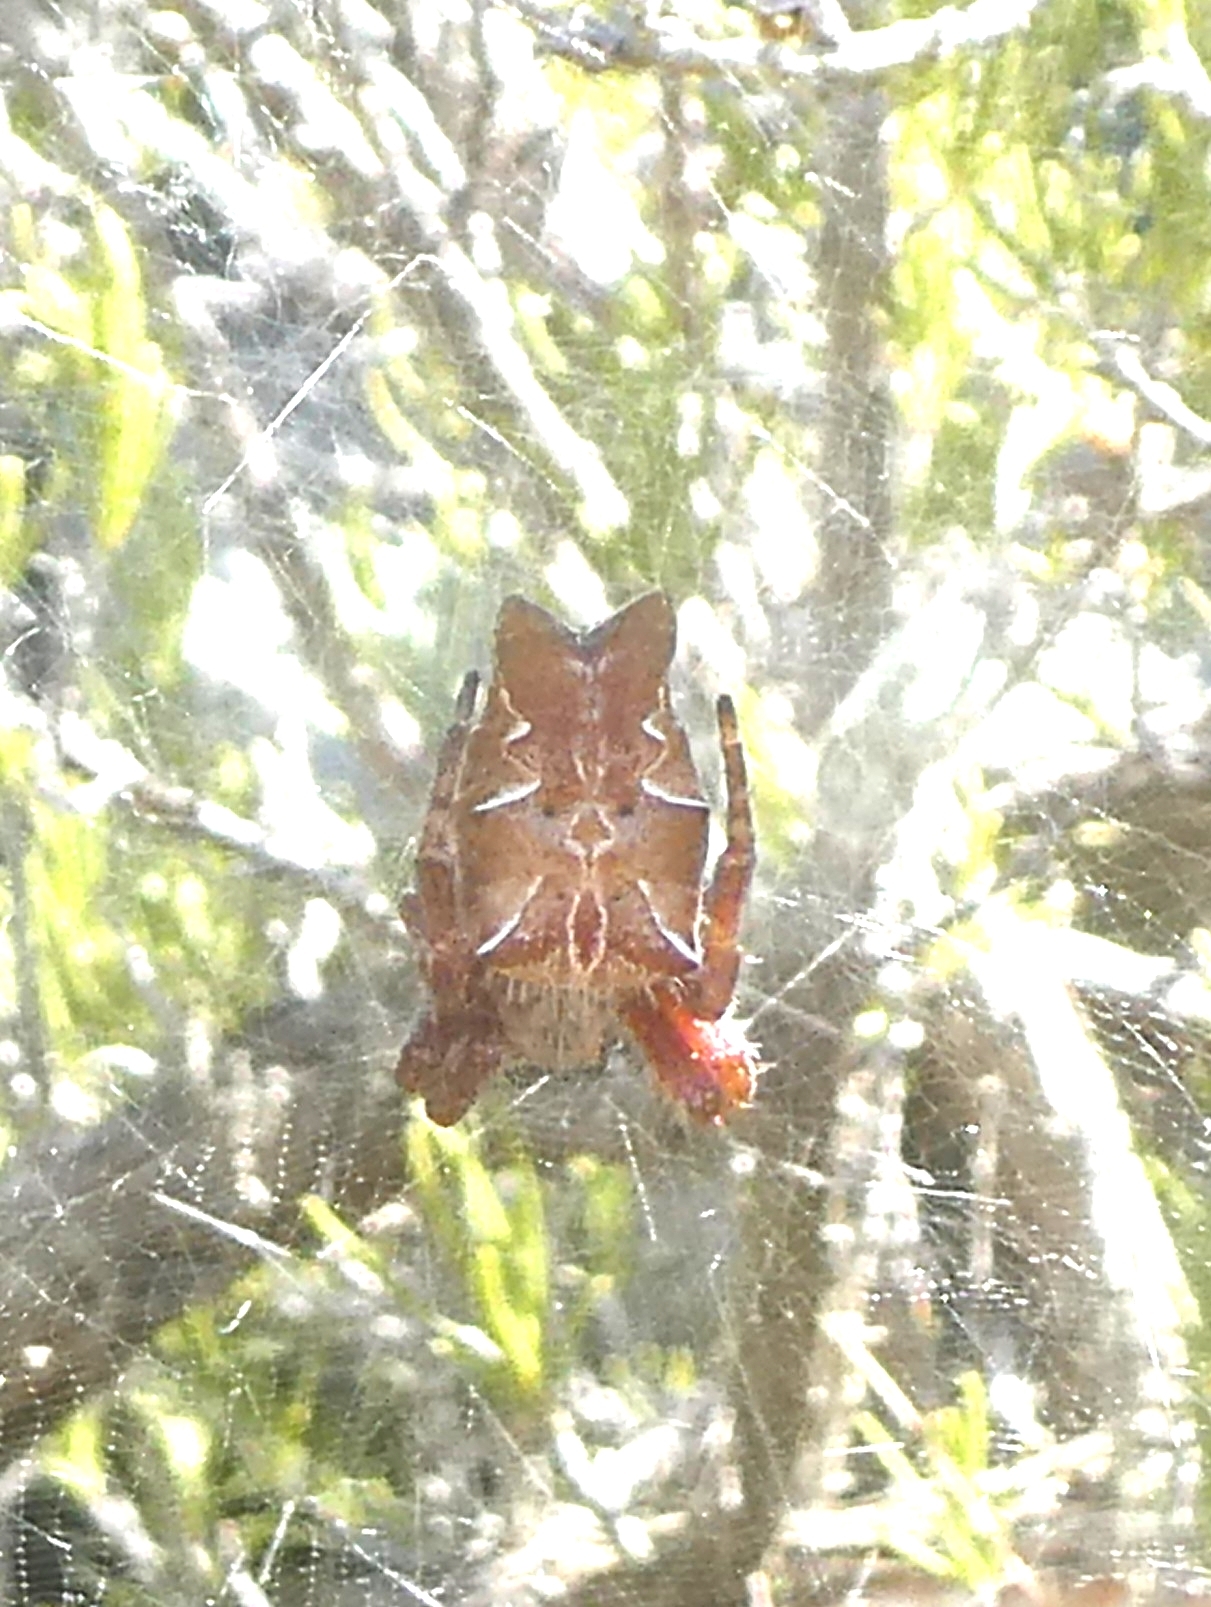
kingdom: Animalia
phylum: Arthropoda
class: Arachnida
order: Araneae
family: Araneidae
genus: Cyrtophora
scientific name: Cyrtophora citricola
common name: Orb weavers
